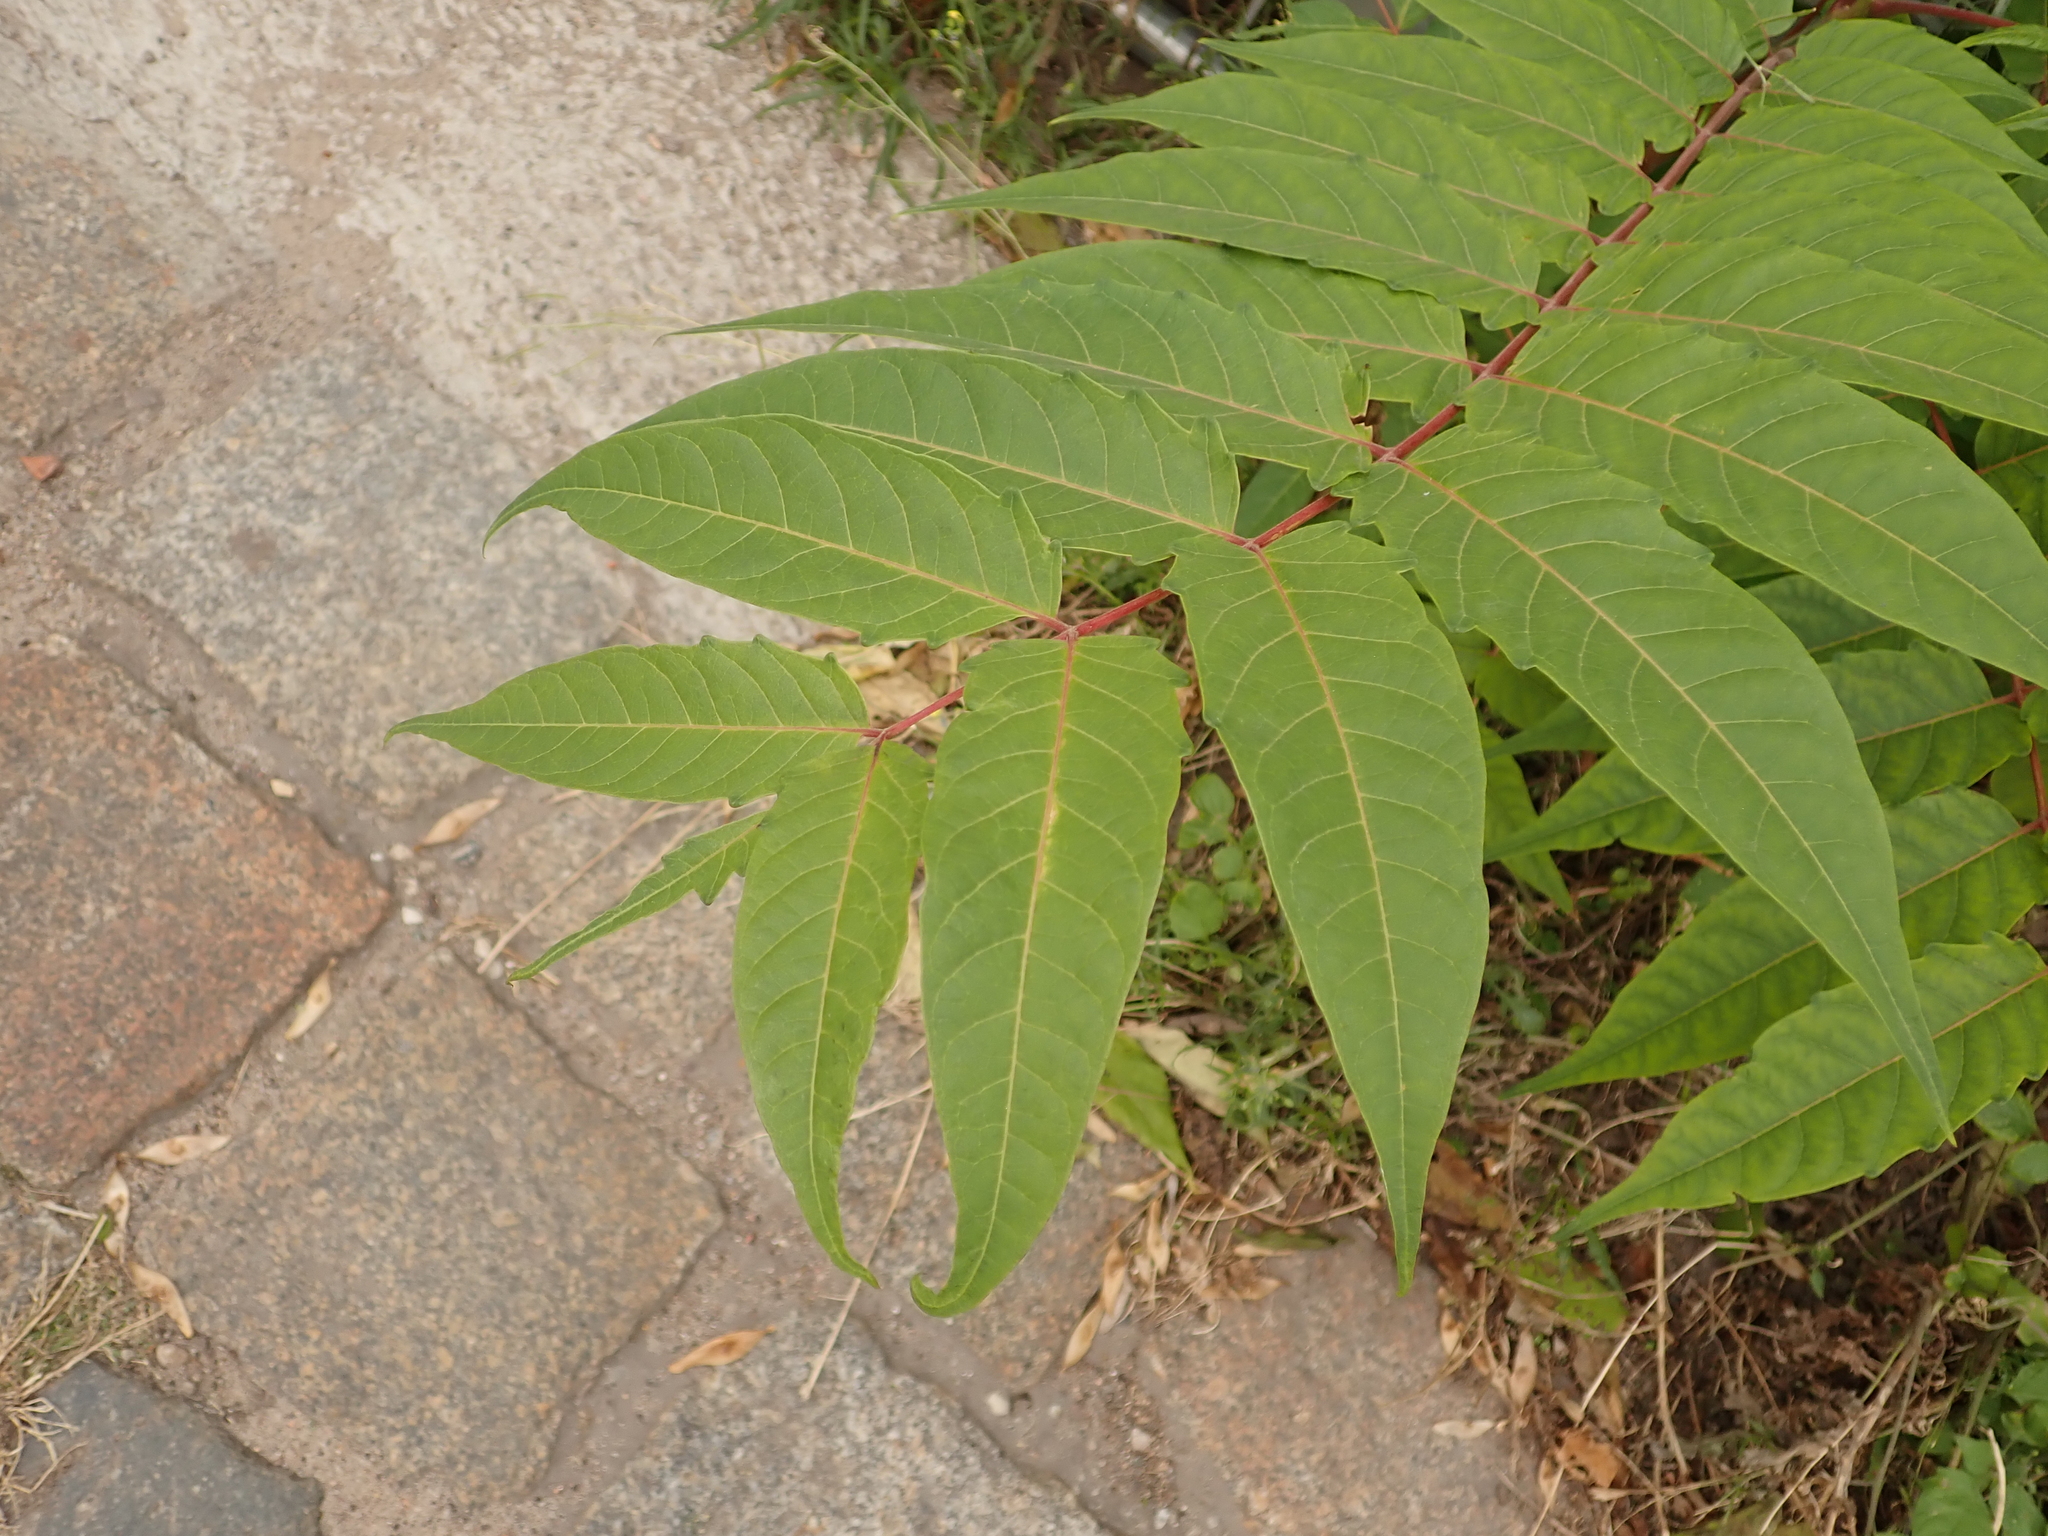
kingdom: Plantae
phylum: Tracheophyta
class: Magnoliopsida
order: Sapindales
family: Simaroubaceae
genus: Ailanthus
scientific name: Ailanthus altissima
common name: Tree-of-heaven
